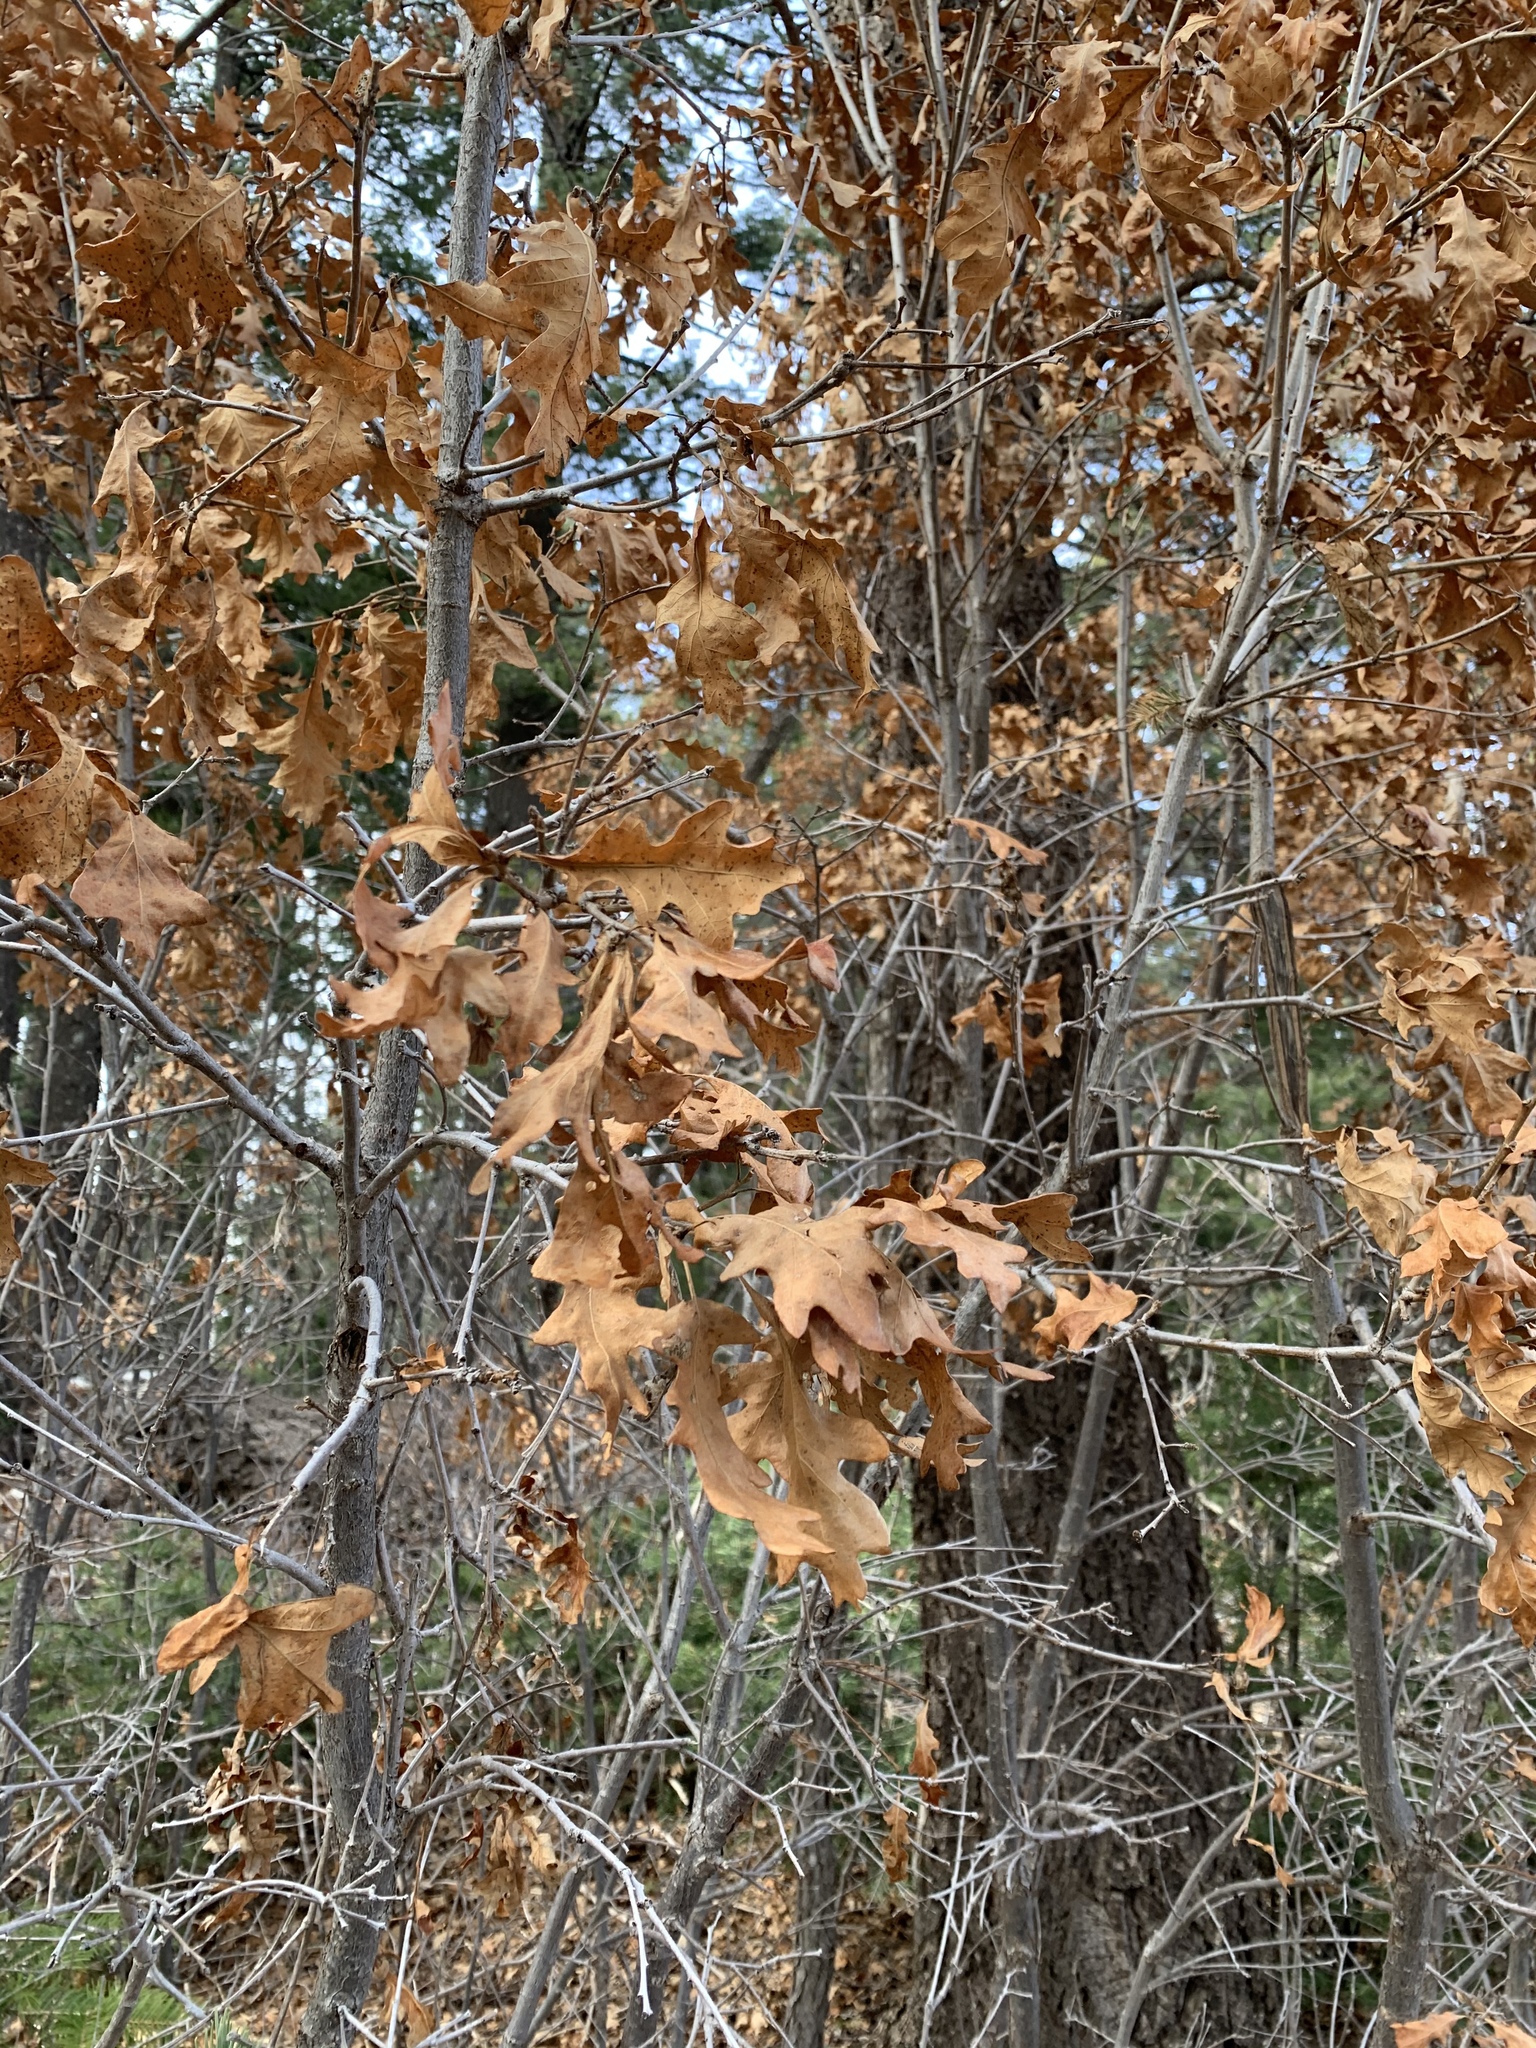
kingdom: Plantae
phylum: Tracheophyta
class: Magnoliopsida
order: Fagales
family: Fagaceae
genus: Quercus
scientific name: Quercus gambelii
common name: Gambel oak
